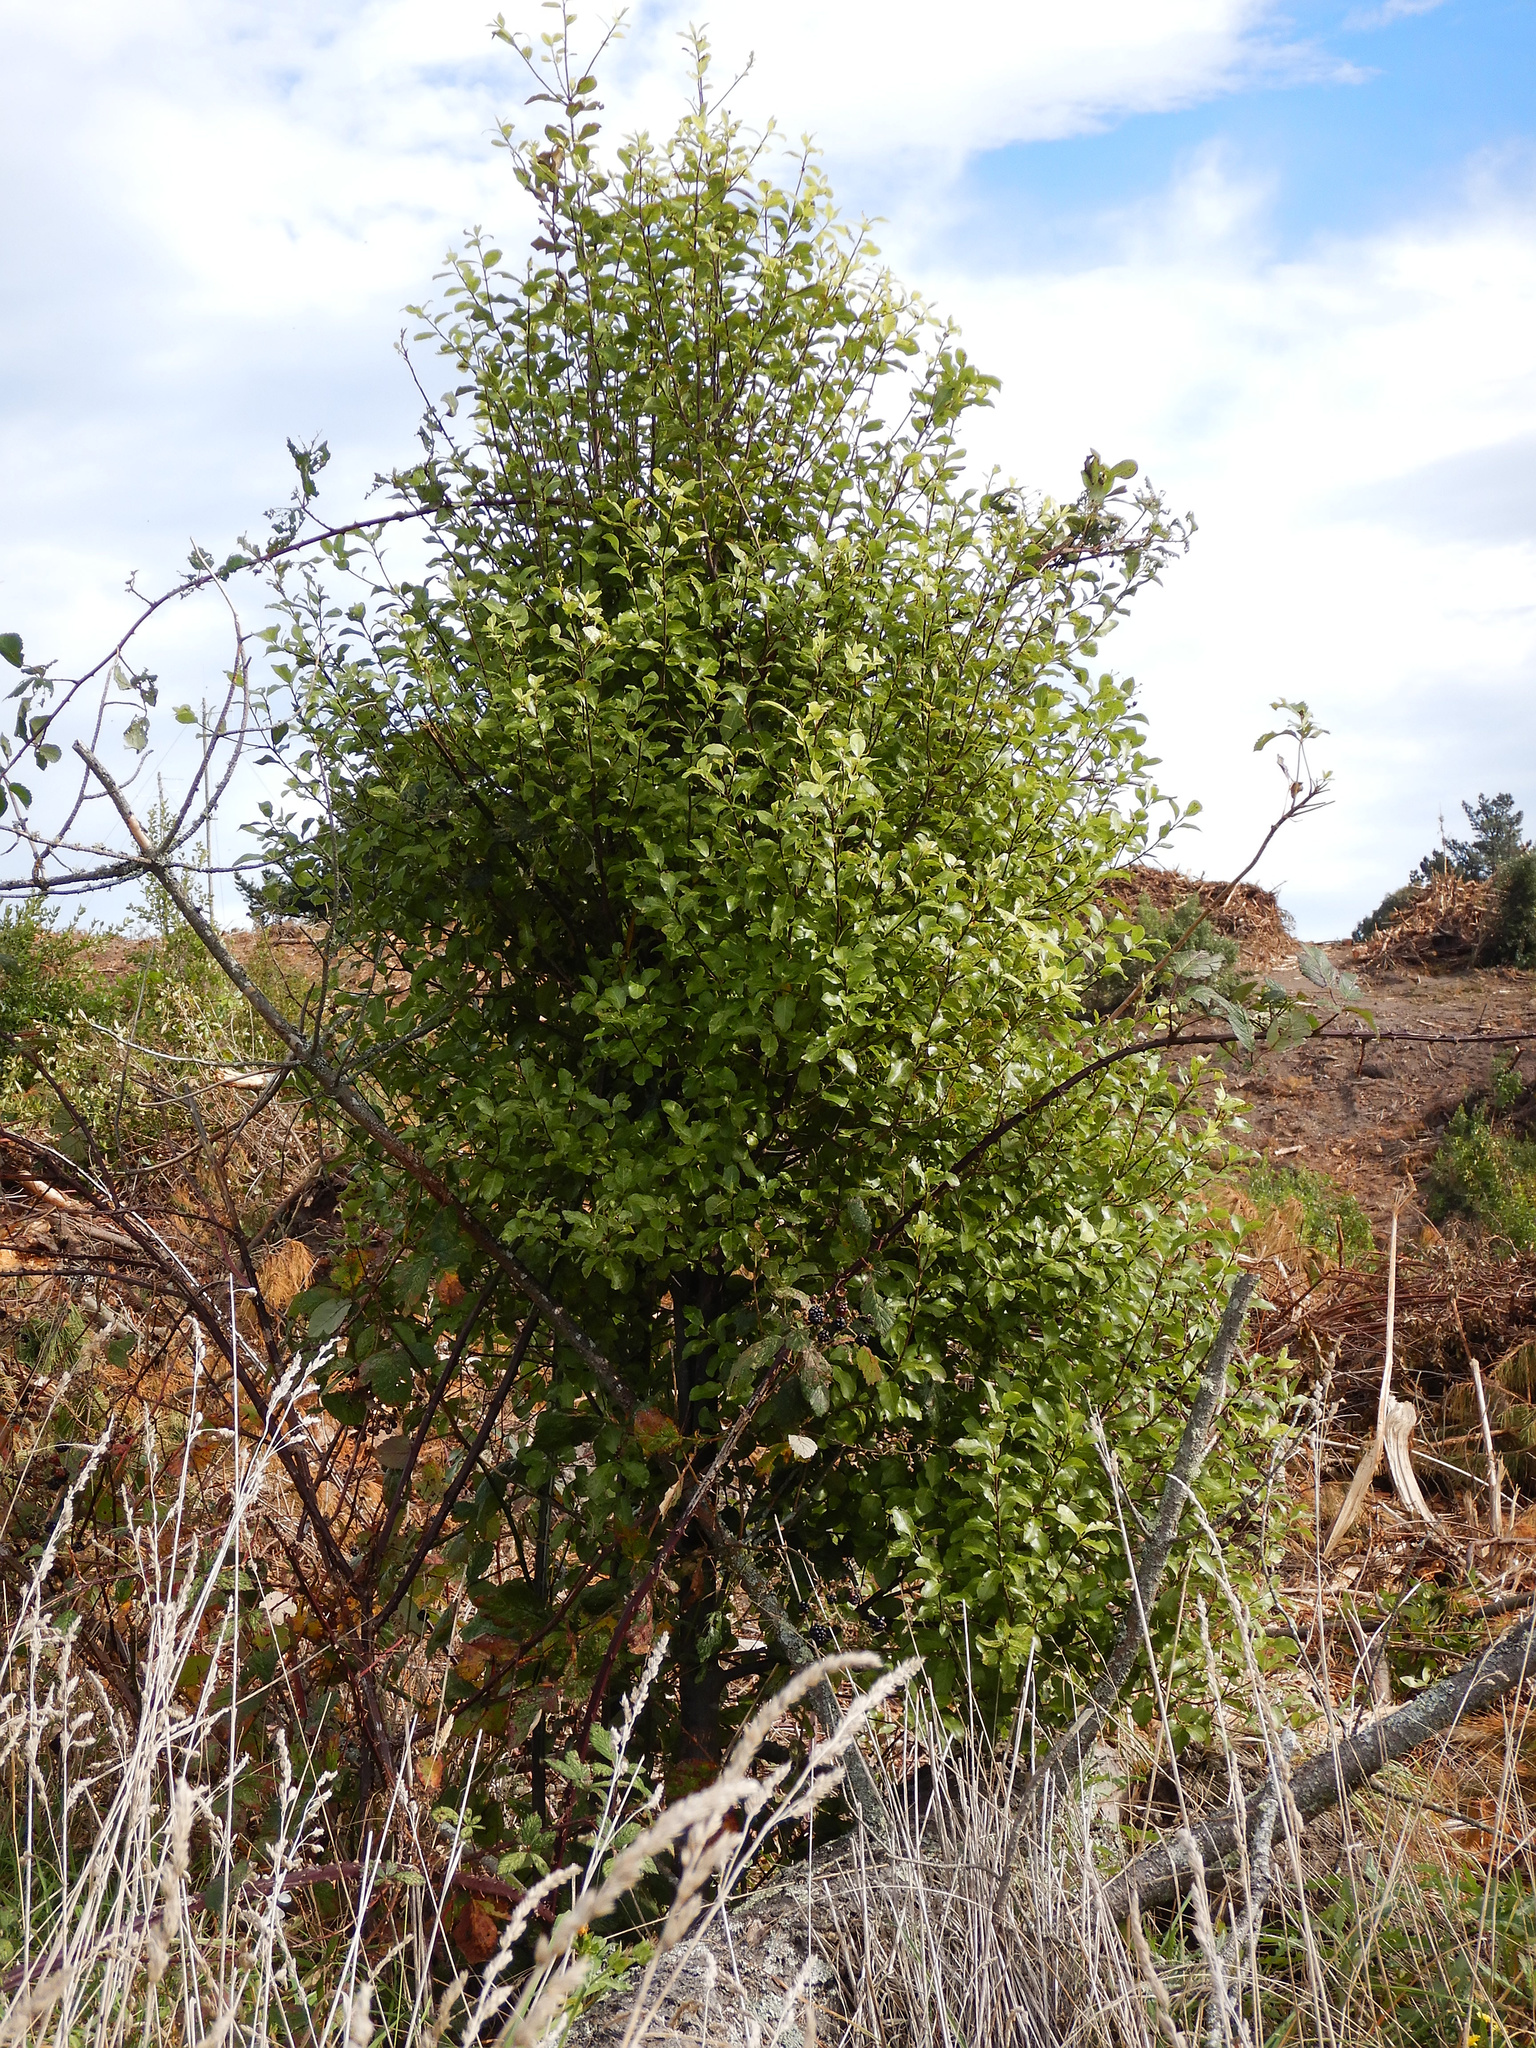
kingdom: Plantae
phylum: Tracheophyta
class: Magnoliopsida
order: Apiales
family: Pittosporaceae
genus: Pittosporum
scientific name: Pittosporum tenuifolium
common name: Kohuhu
